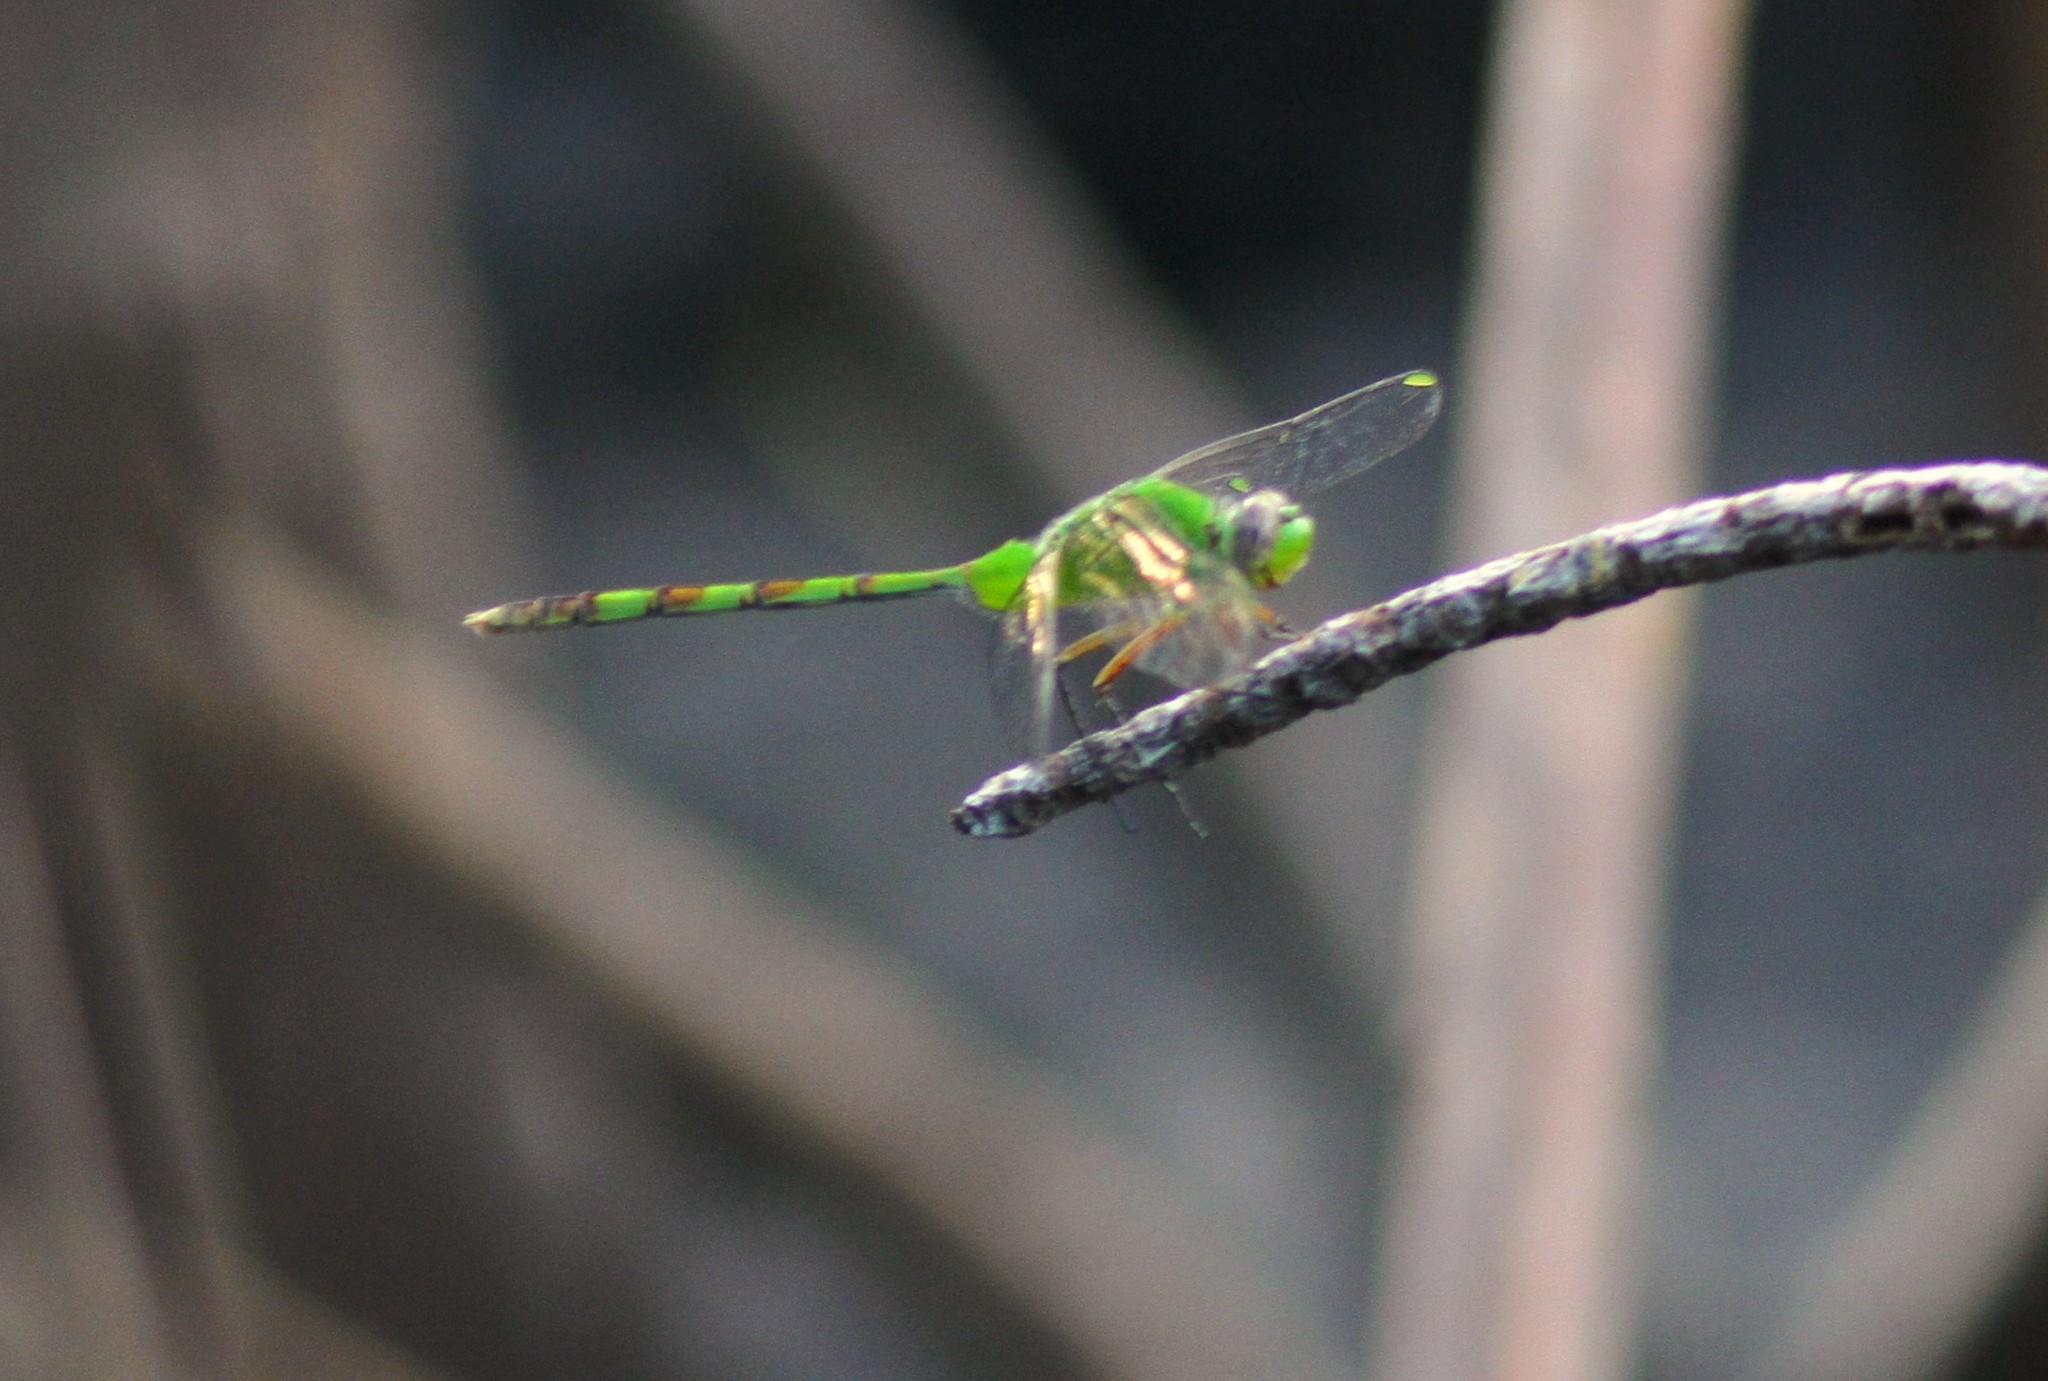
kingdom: Animalia
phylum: Arthropoda
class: Insecta
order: Odonata
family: Libellulidae
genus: Erythemis
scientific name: Erythemis vesiculosa
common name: Great pondhawk
